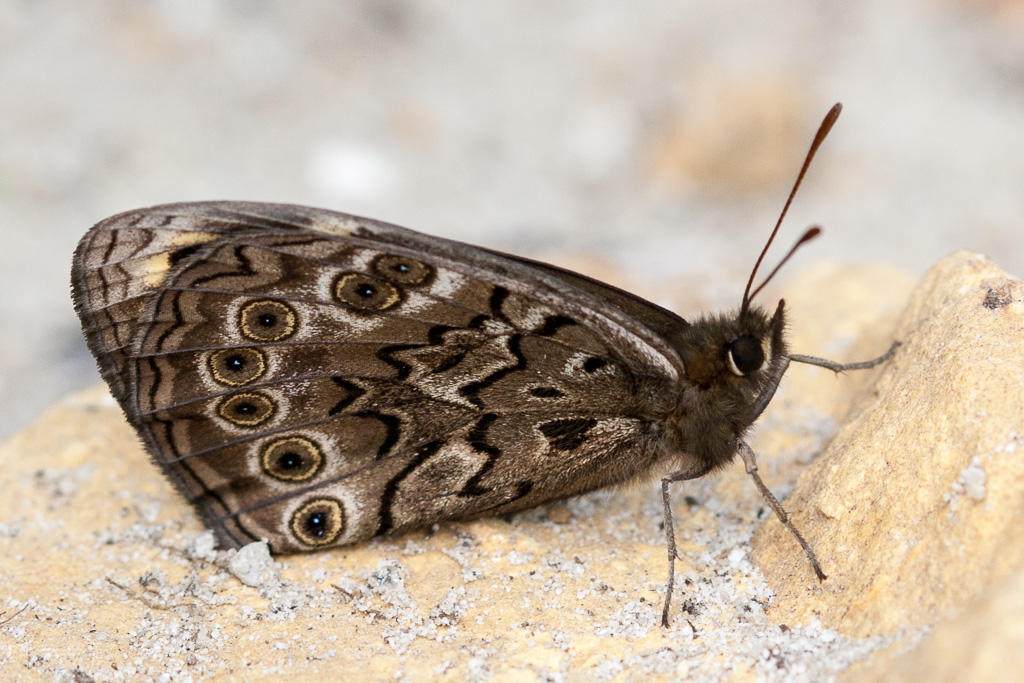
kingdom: Animalia
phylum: Arthropoda
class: Insecta
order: Lepidoptera
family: Nymphalidae
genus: Dira
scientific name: Dira clytus
